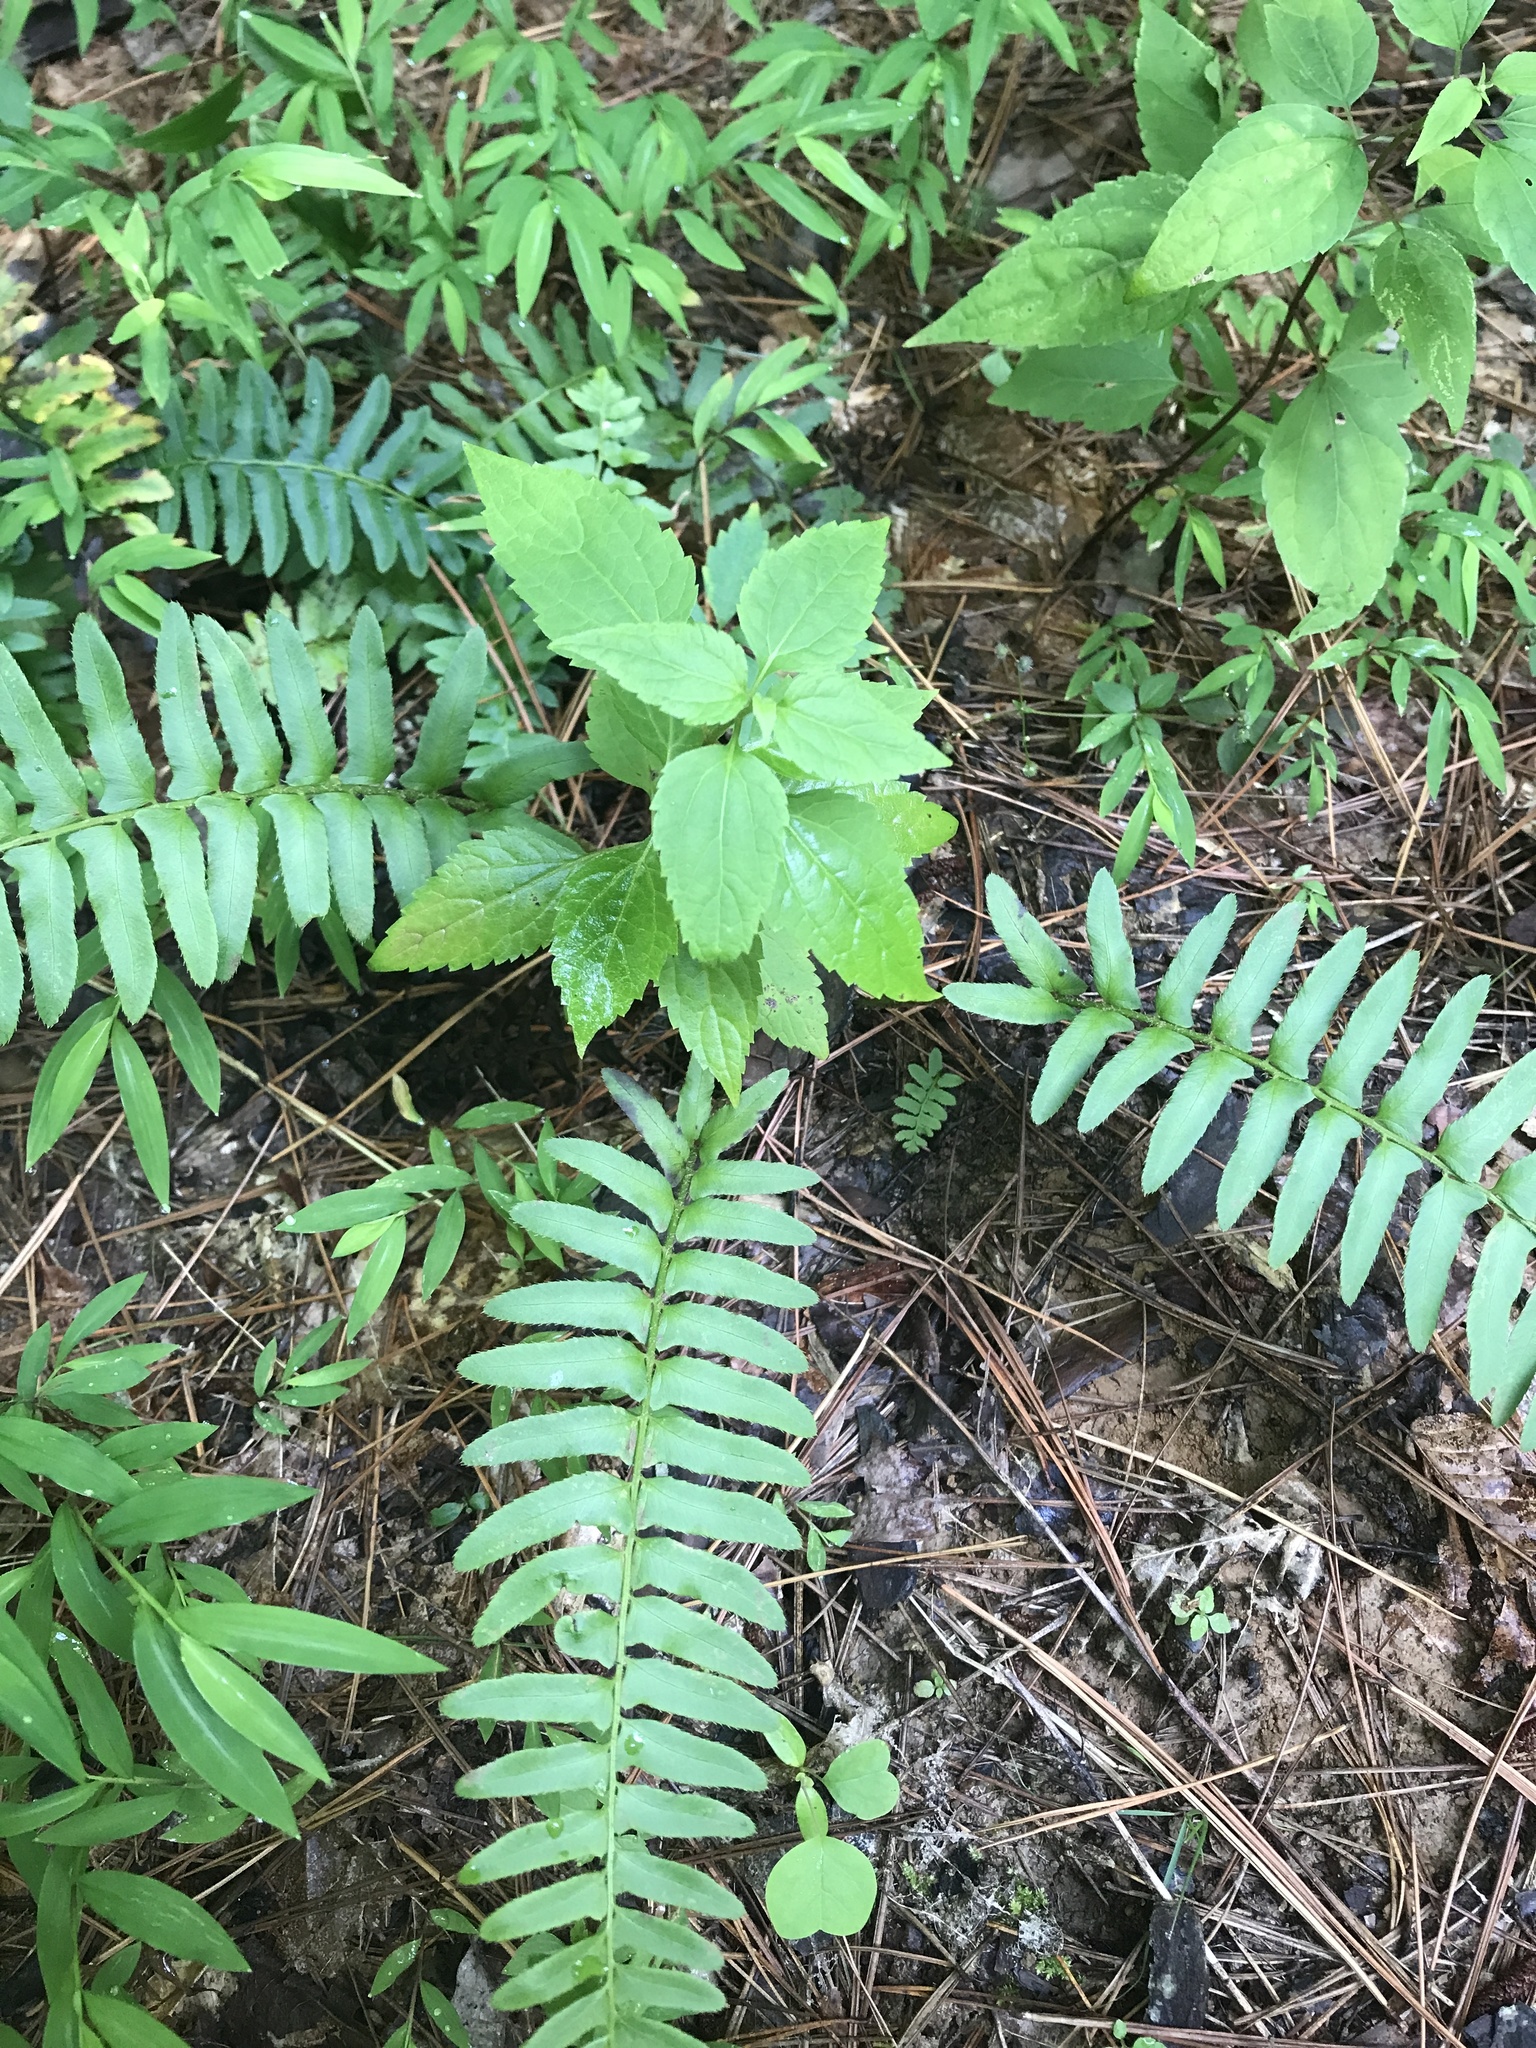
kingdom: Plantae
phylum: Tracheophyta
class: Polypodiopsida
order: Polypodiales
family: Dryopteridaceae
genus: Polystichum
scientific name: Polystichum acrostichoides
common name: Christmas fern
